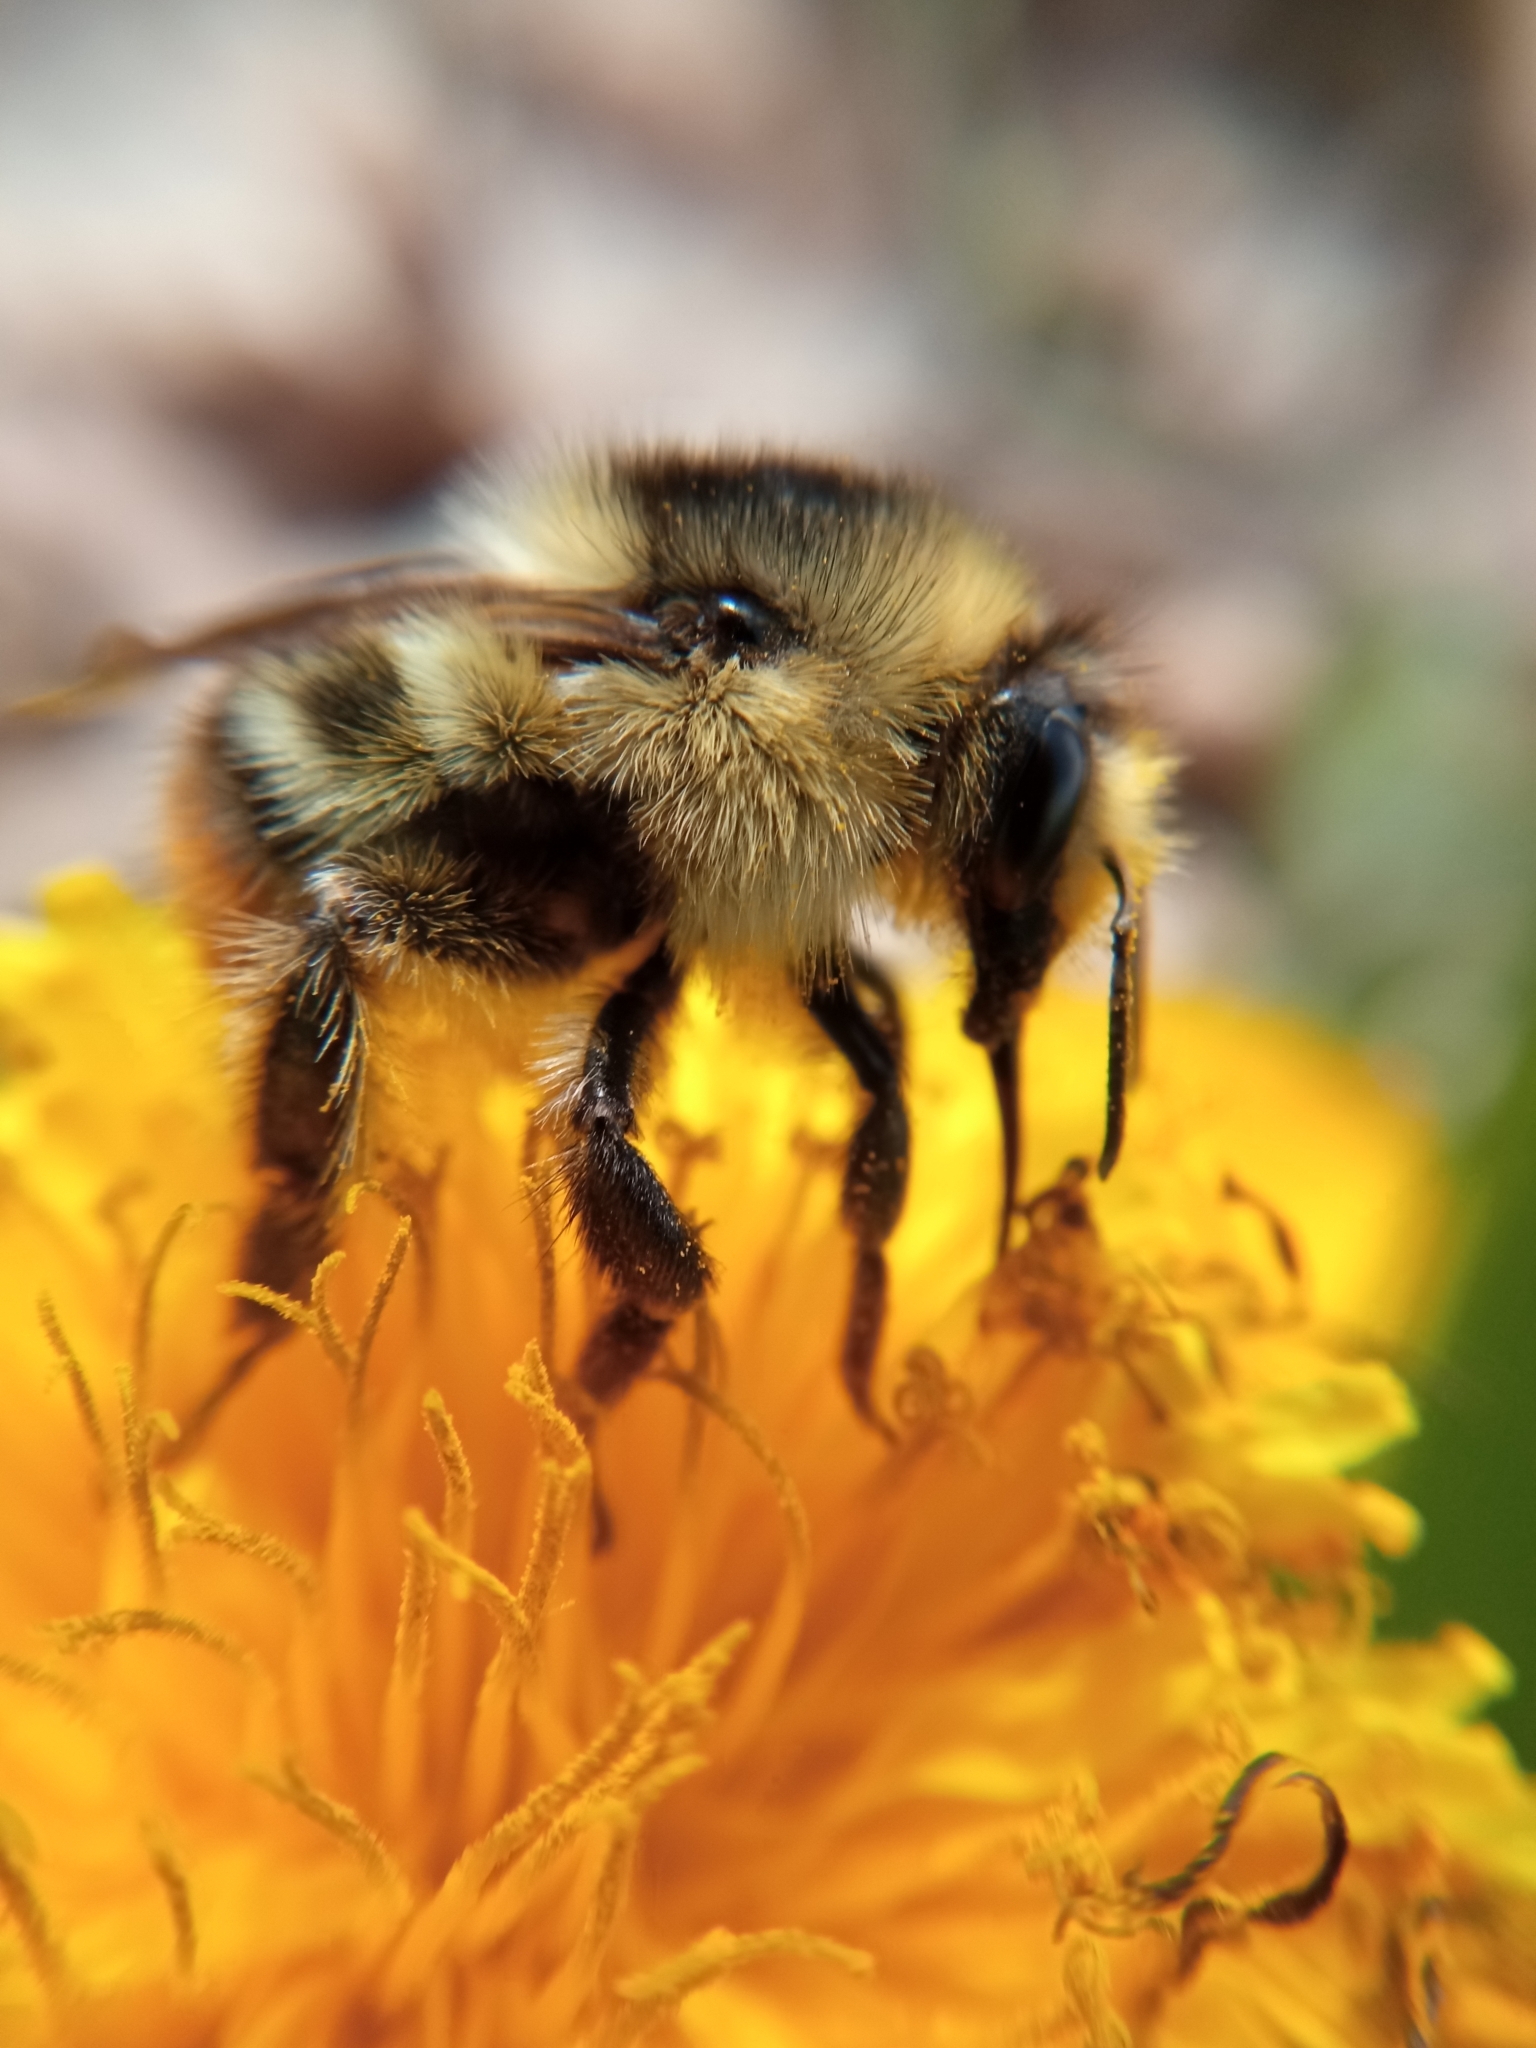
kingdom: Animalia
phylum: Arthropoda
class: Insecta
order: Hymenoptera
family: Apidae
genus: Bombus
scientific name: Bombus sylvarum
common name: Shrill carder bee
